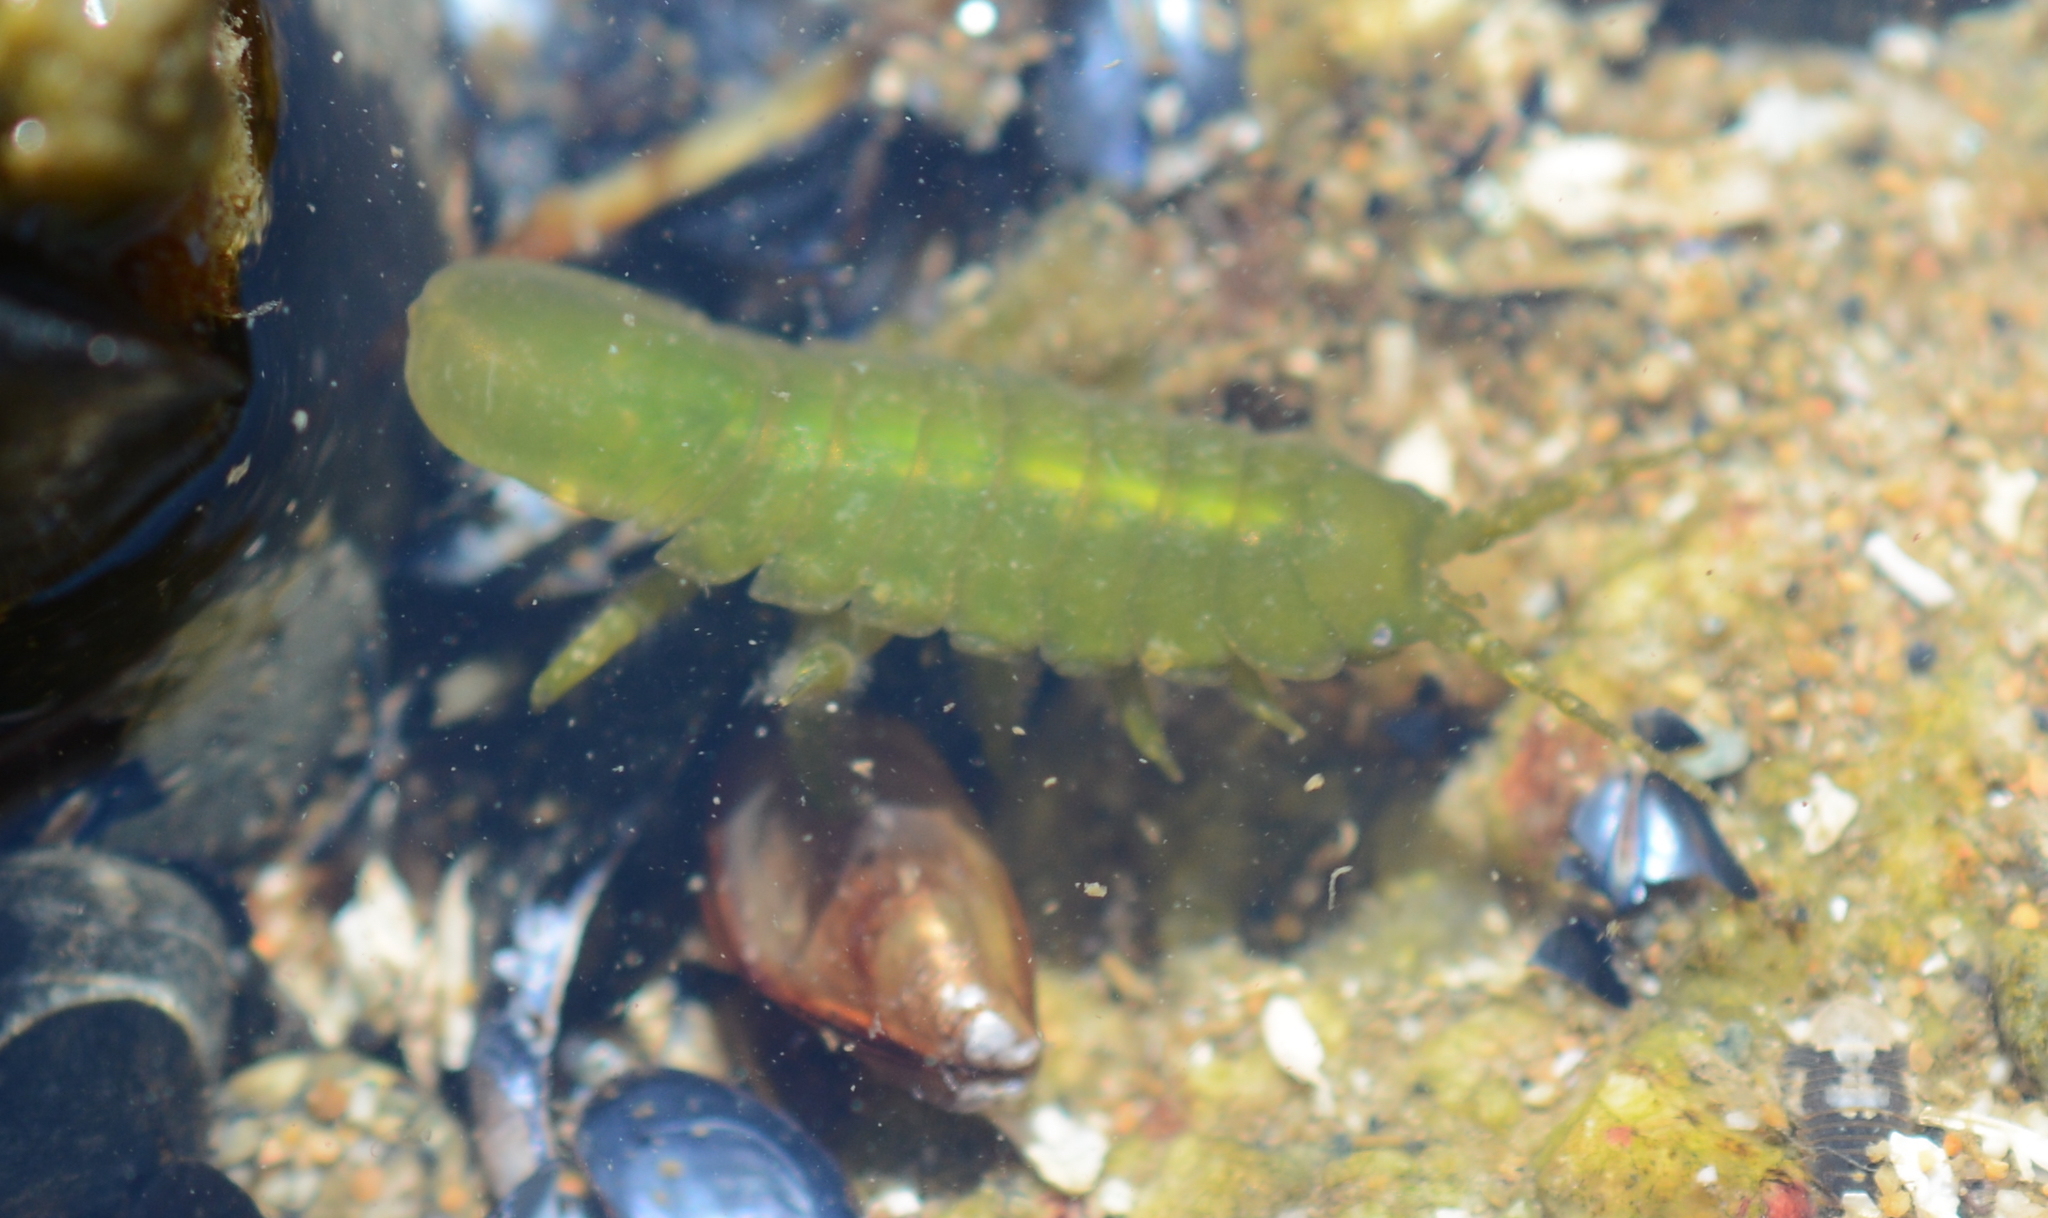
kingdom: Animalia
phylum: Arthropoda
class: Malacostraca
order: Isopoda
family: Idoteidae
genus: Pentidotea
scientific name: Pentidotea wosnesenskii
